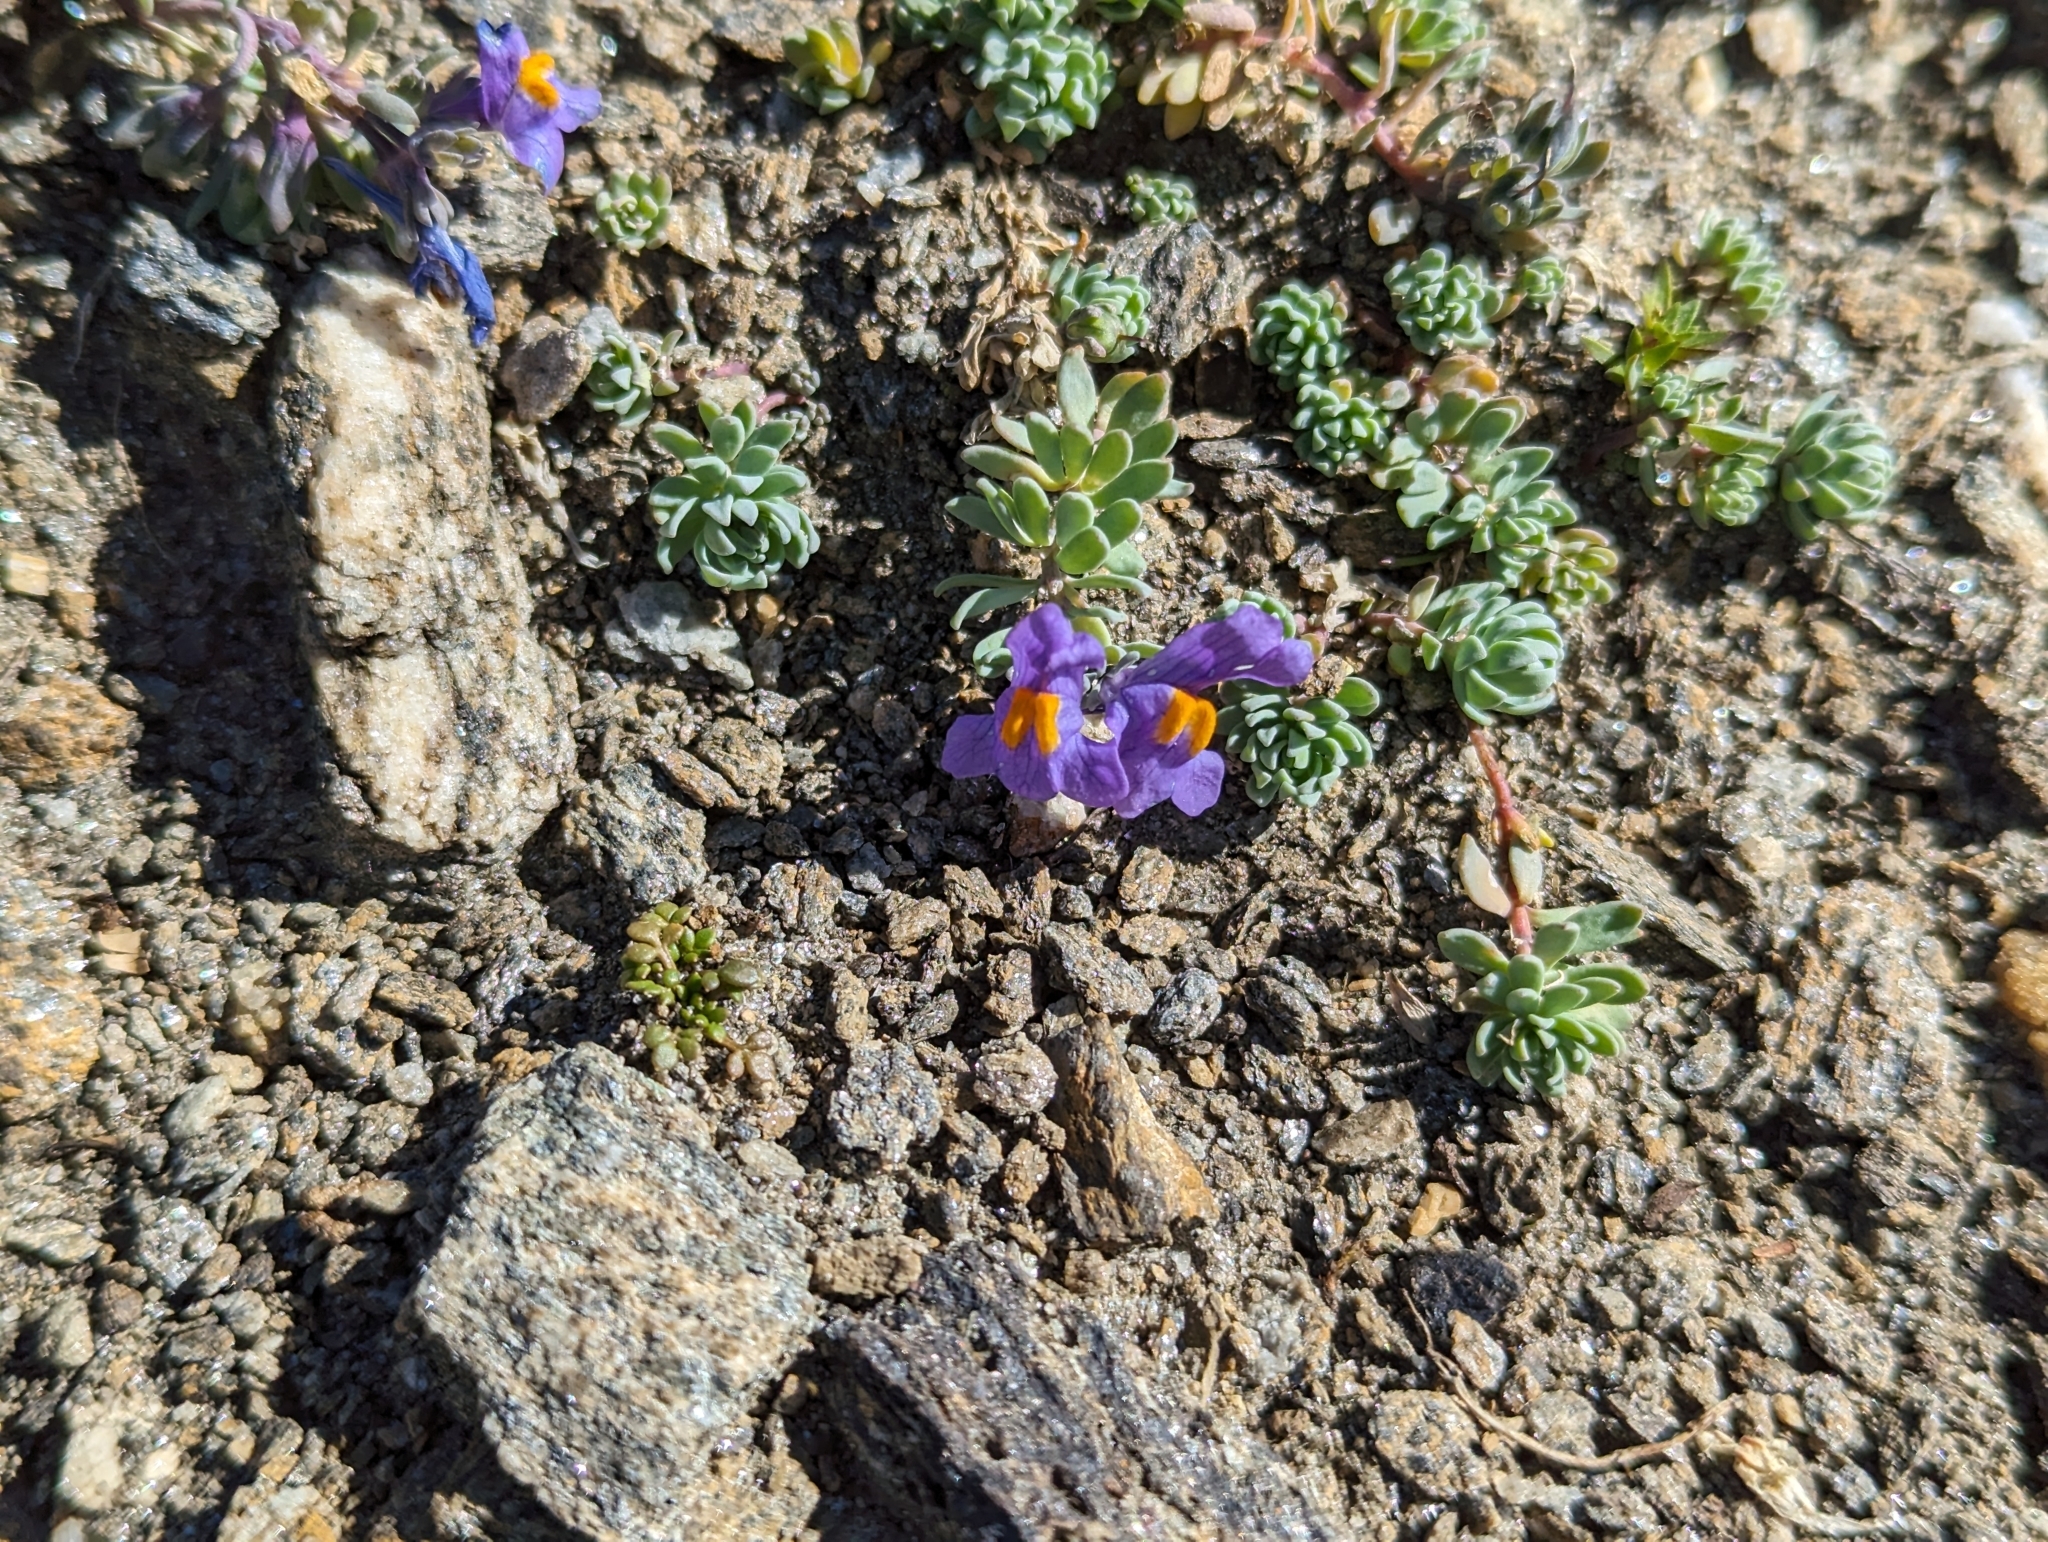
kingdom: Plantae
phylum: Tracheophyta
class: Magnoliopsida
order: Lamiales
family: Plantaginaceae
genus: Linaria
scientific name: Linaria alpina
